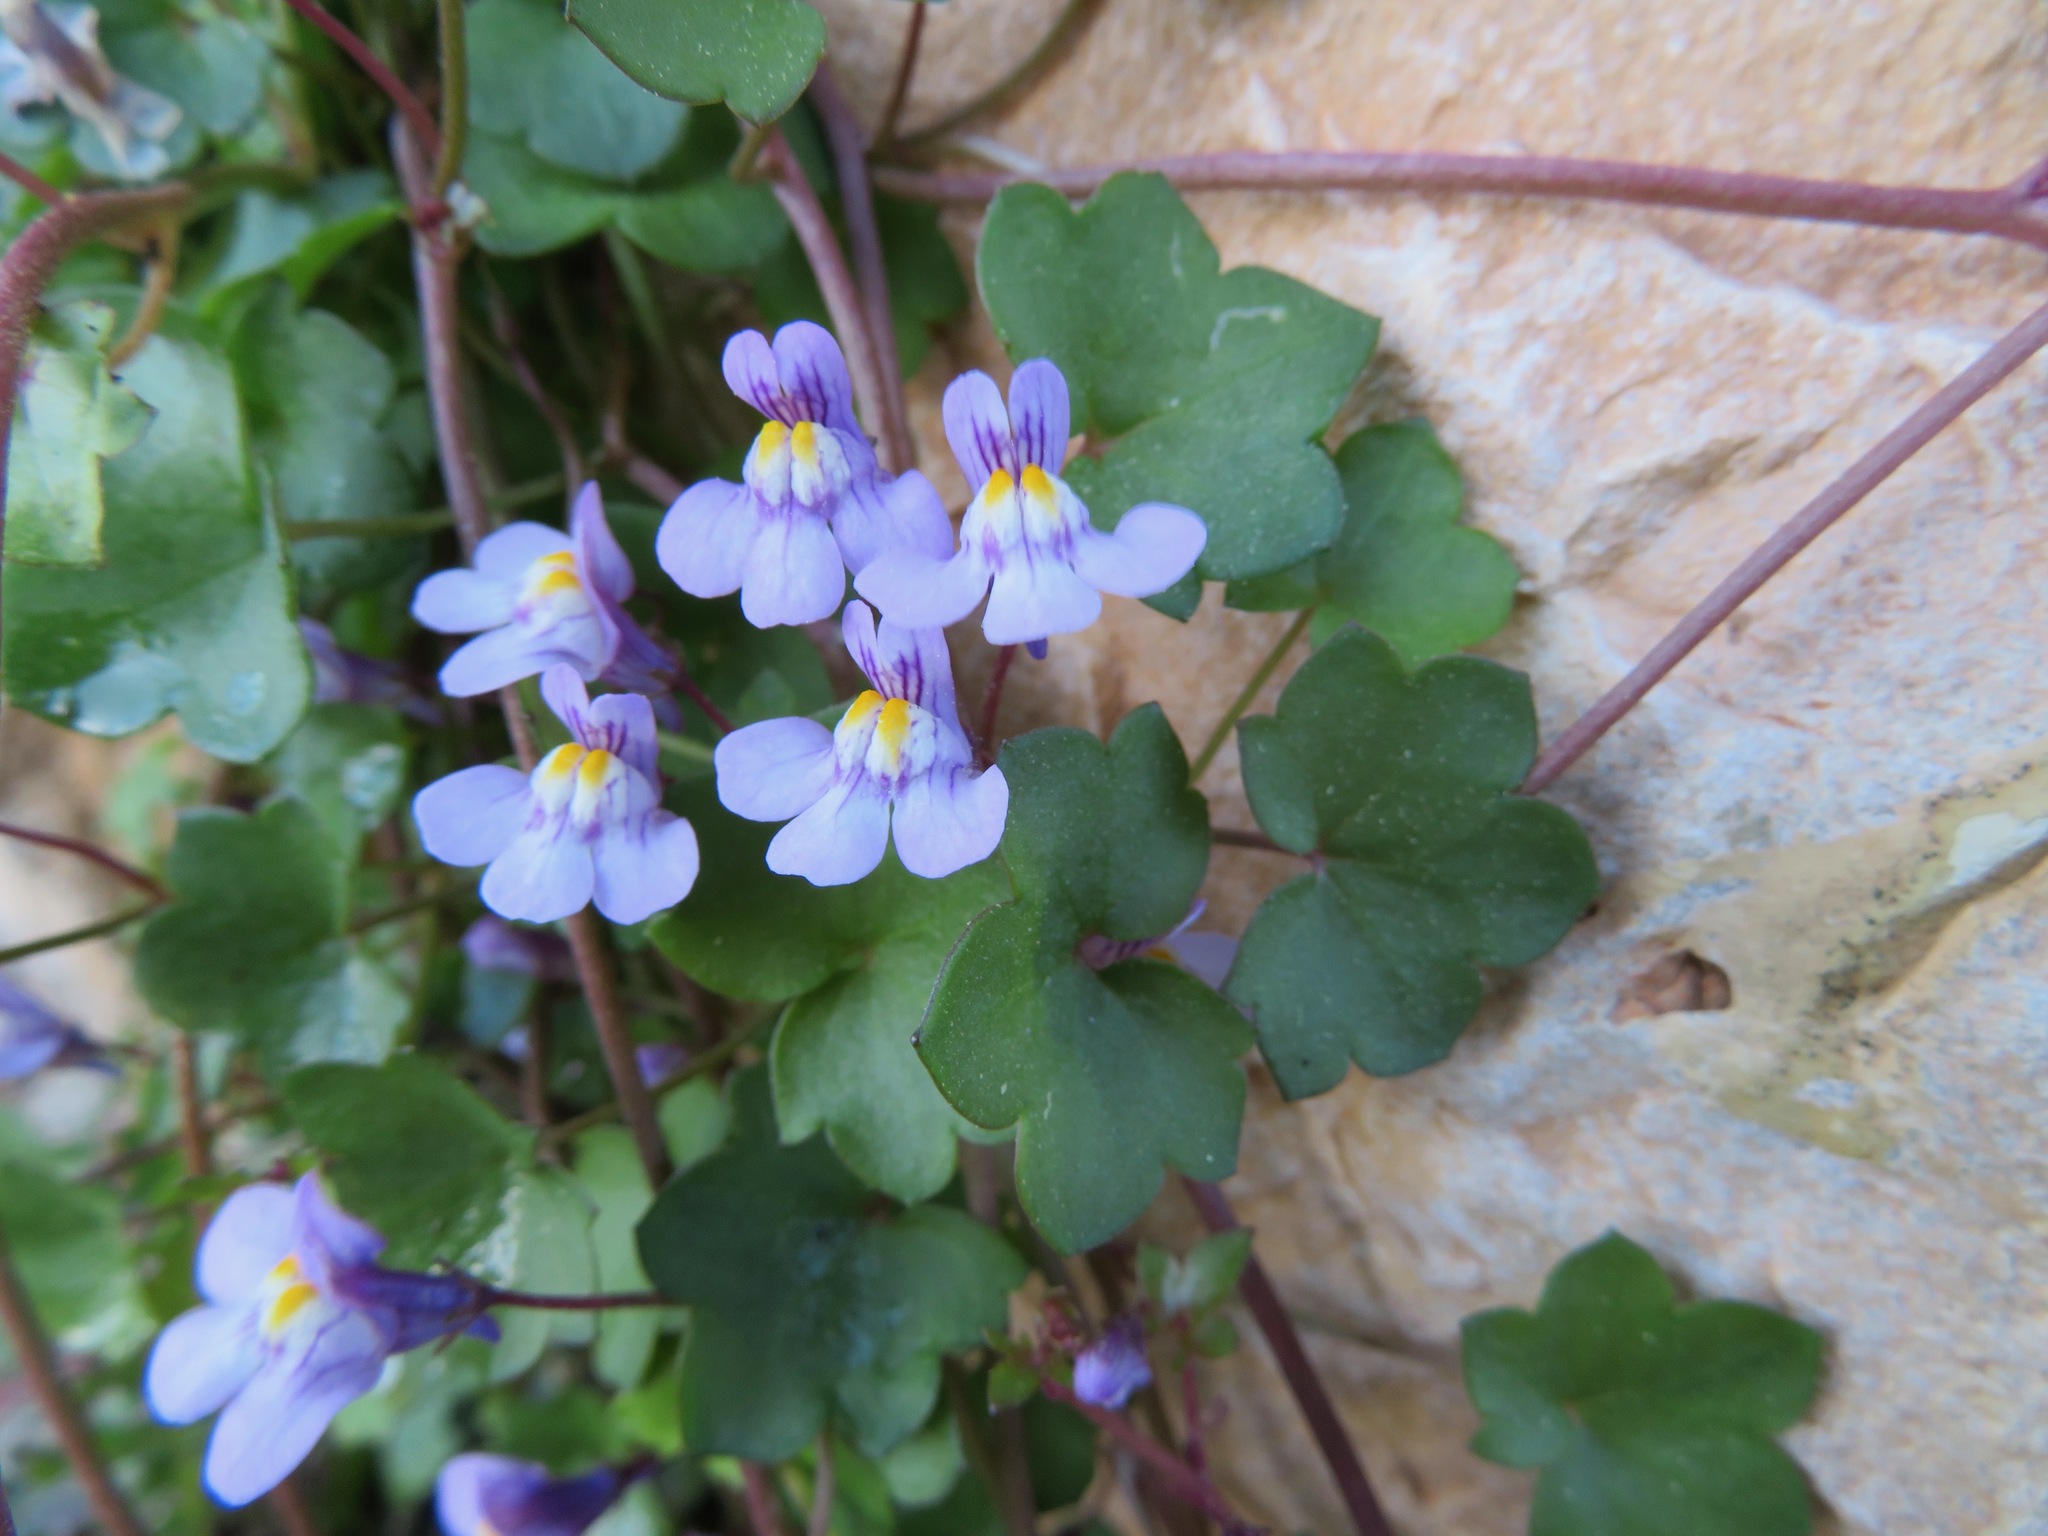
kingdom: Plantae
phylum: Tracheophyta
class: Magnoliopsida
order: Lamiales
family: Plantaginaceae
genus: Cymbalaria
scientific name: Cymbalaria muralis
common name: Ivy-leaved toadflax
